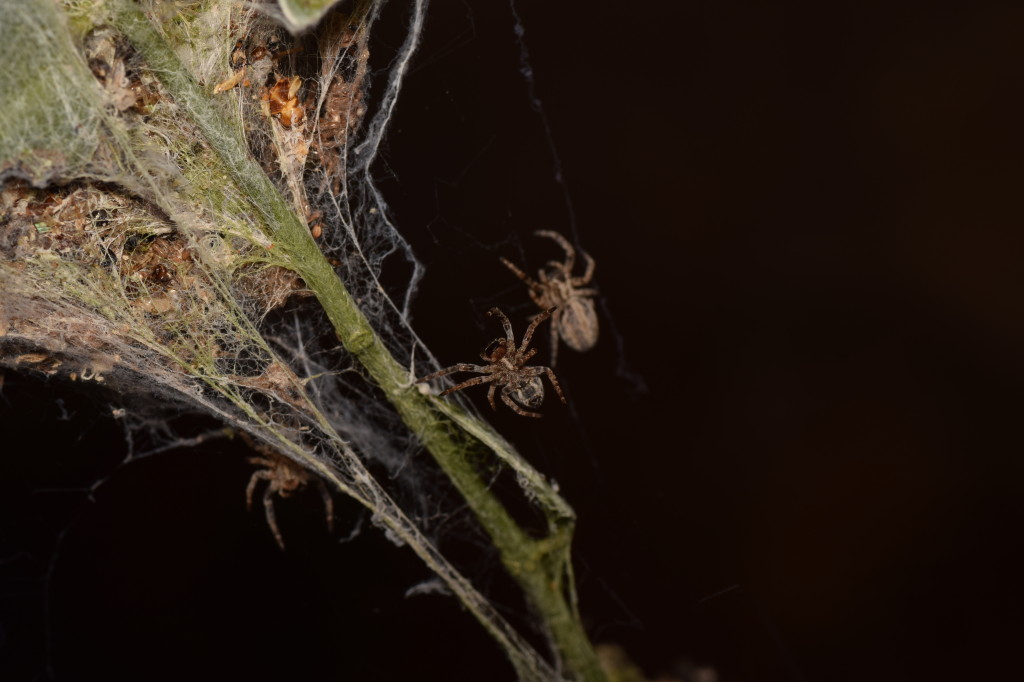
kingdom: Animalia
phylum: Arthropoda
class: Arachnida
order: Araneae
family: Eresidae
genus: Stegodyphus
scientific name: Stegodyphus sarasinorum
